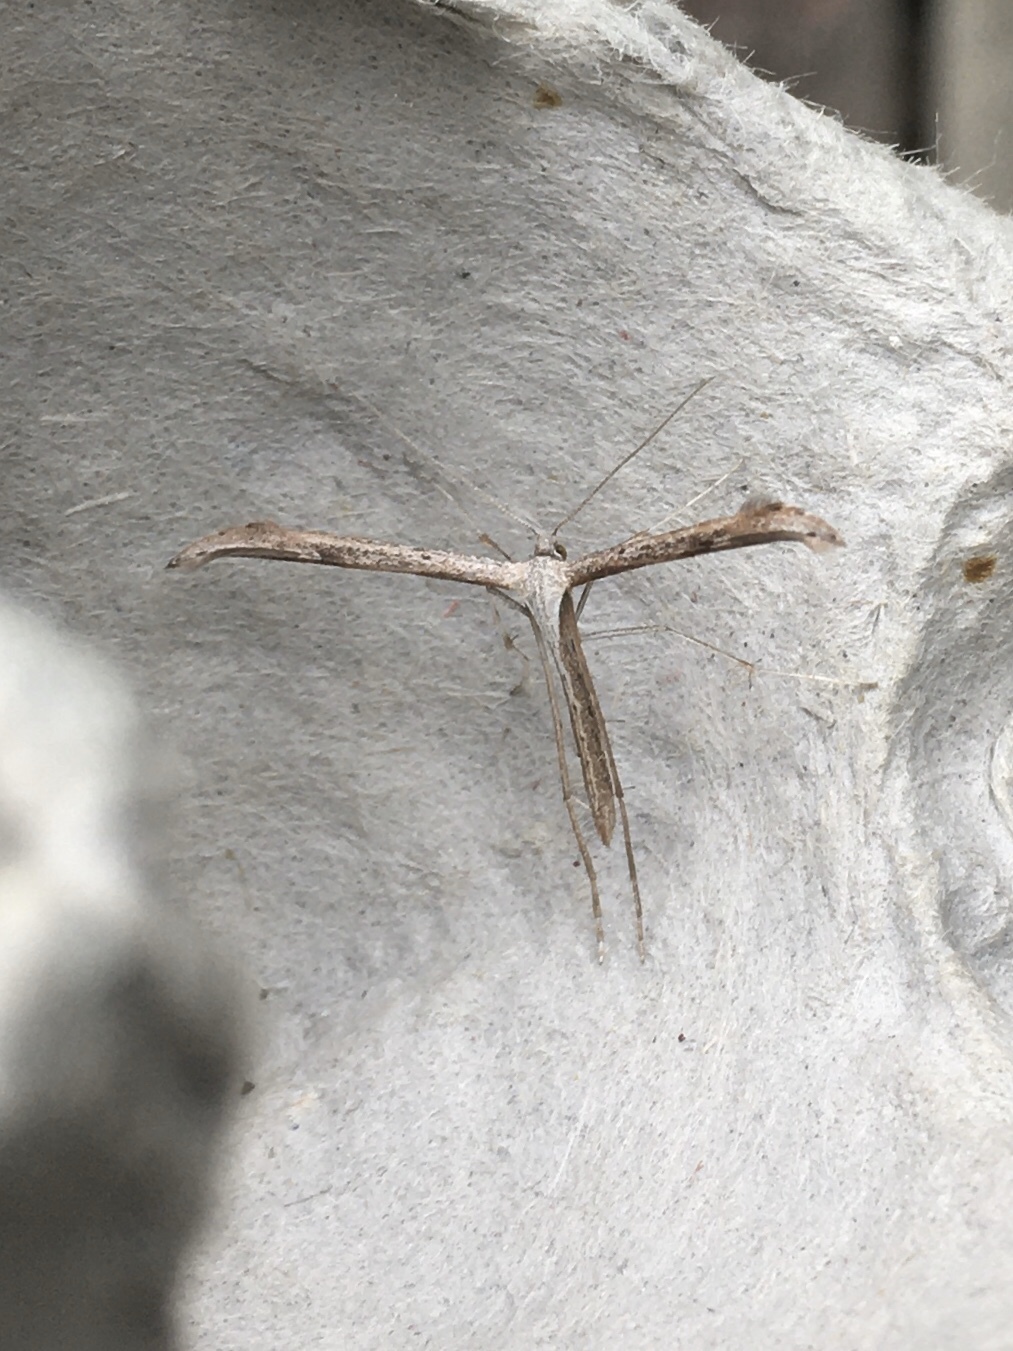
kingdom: Animalia
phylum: Arthropoda
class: Insecta
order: Lepidoptera
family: Pterophoridae
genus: Emmelina
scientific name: Emmelina monodactyla
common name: Common plume
